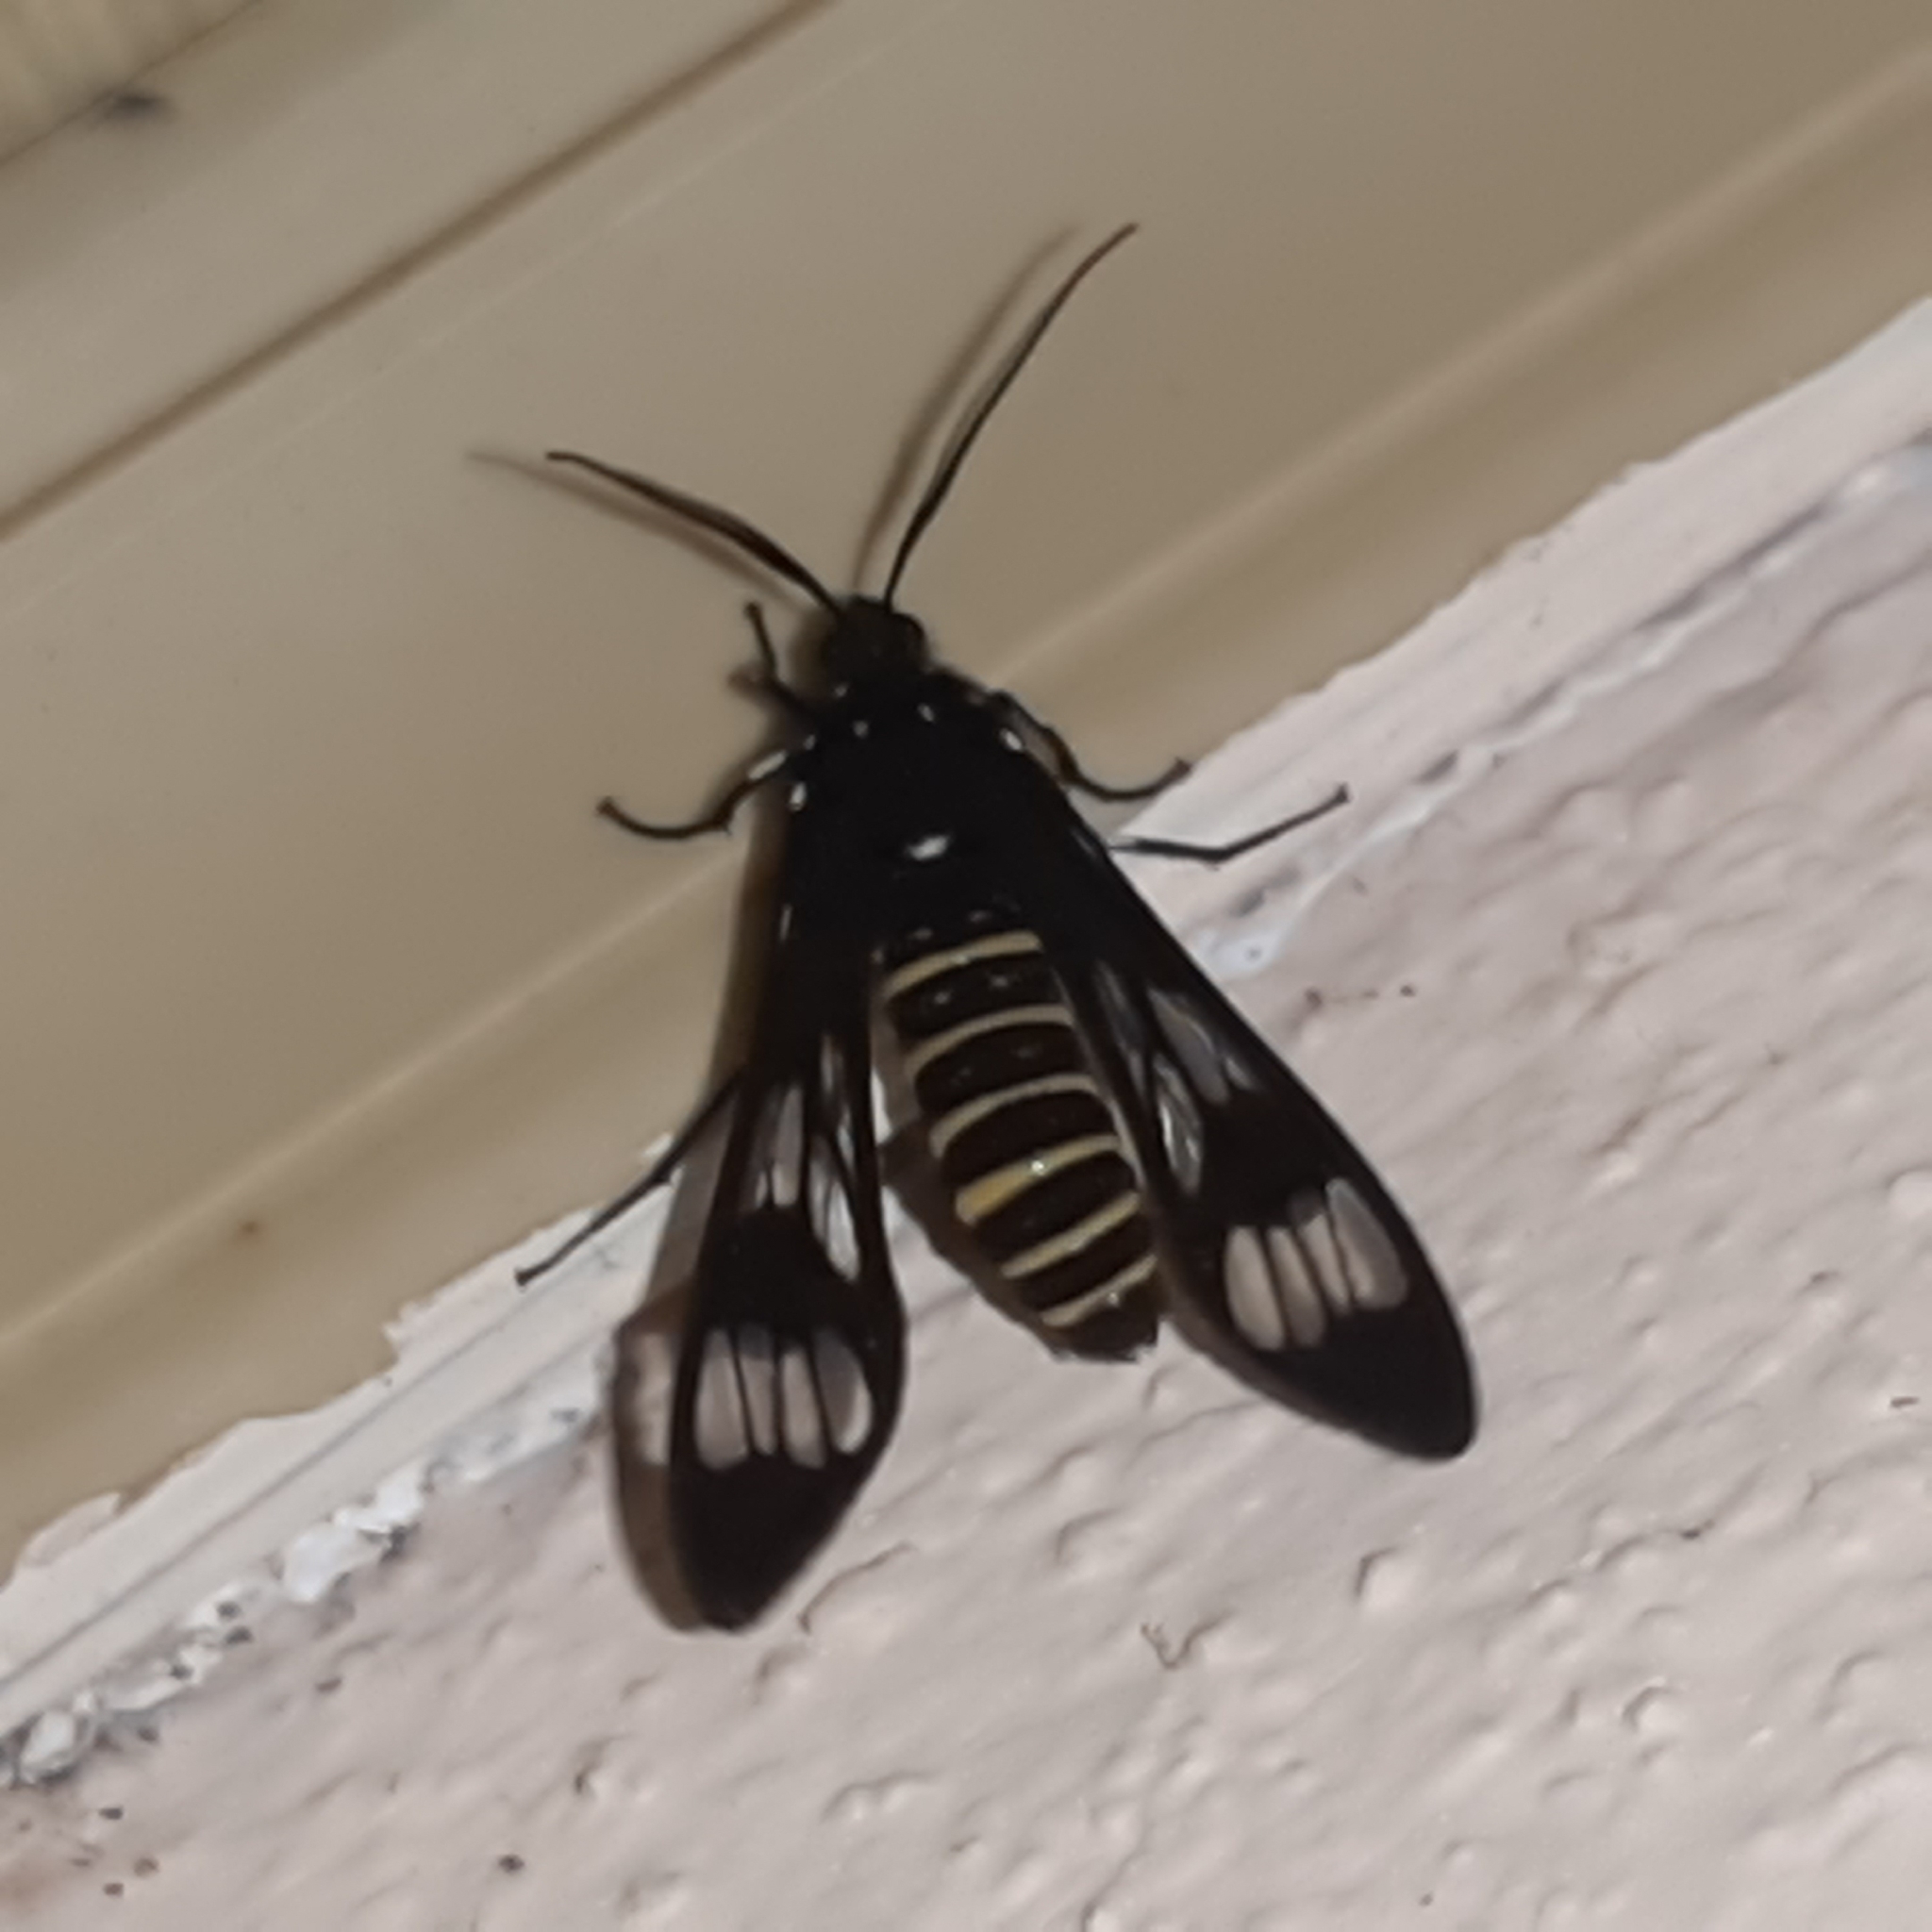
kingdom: Animalia
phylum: Arthropoda
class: Insecta
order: Lepidoptera
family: Erebidae
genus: Phaenarete
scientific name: Phaenarete diana
